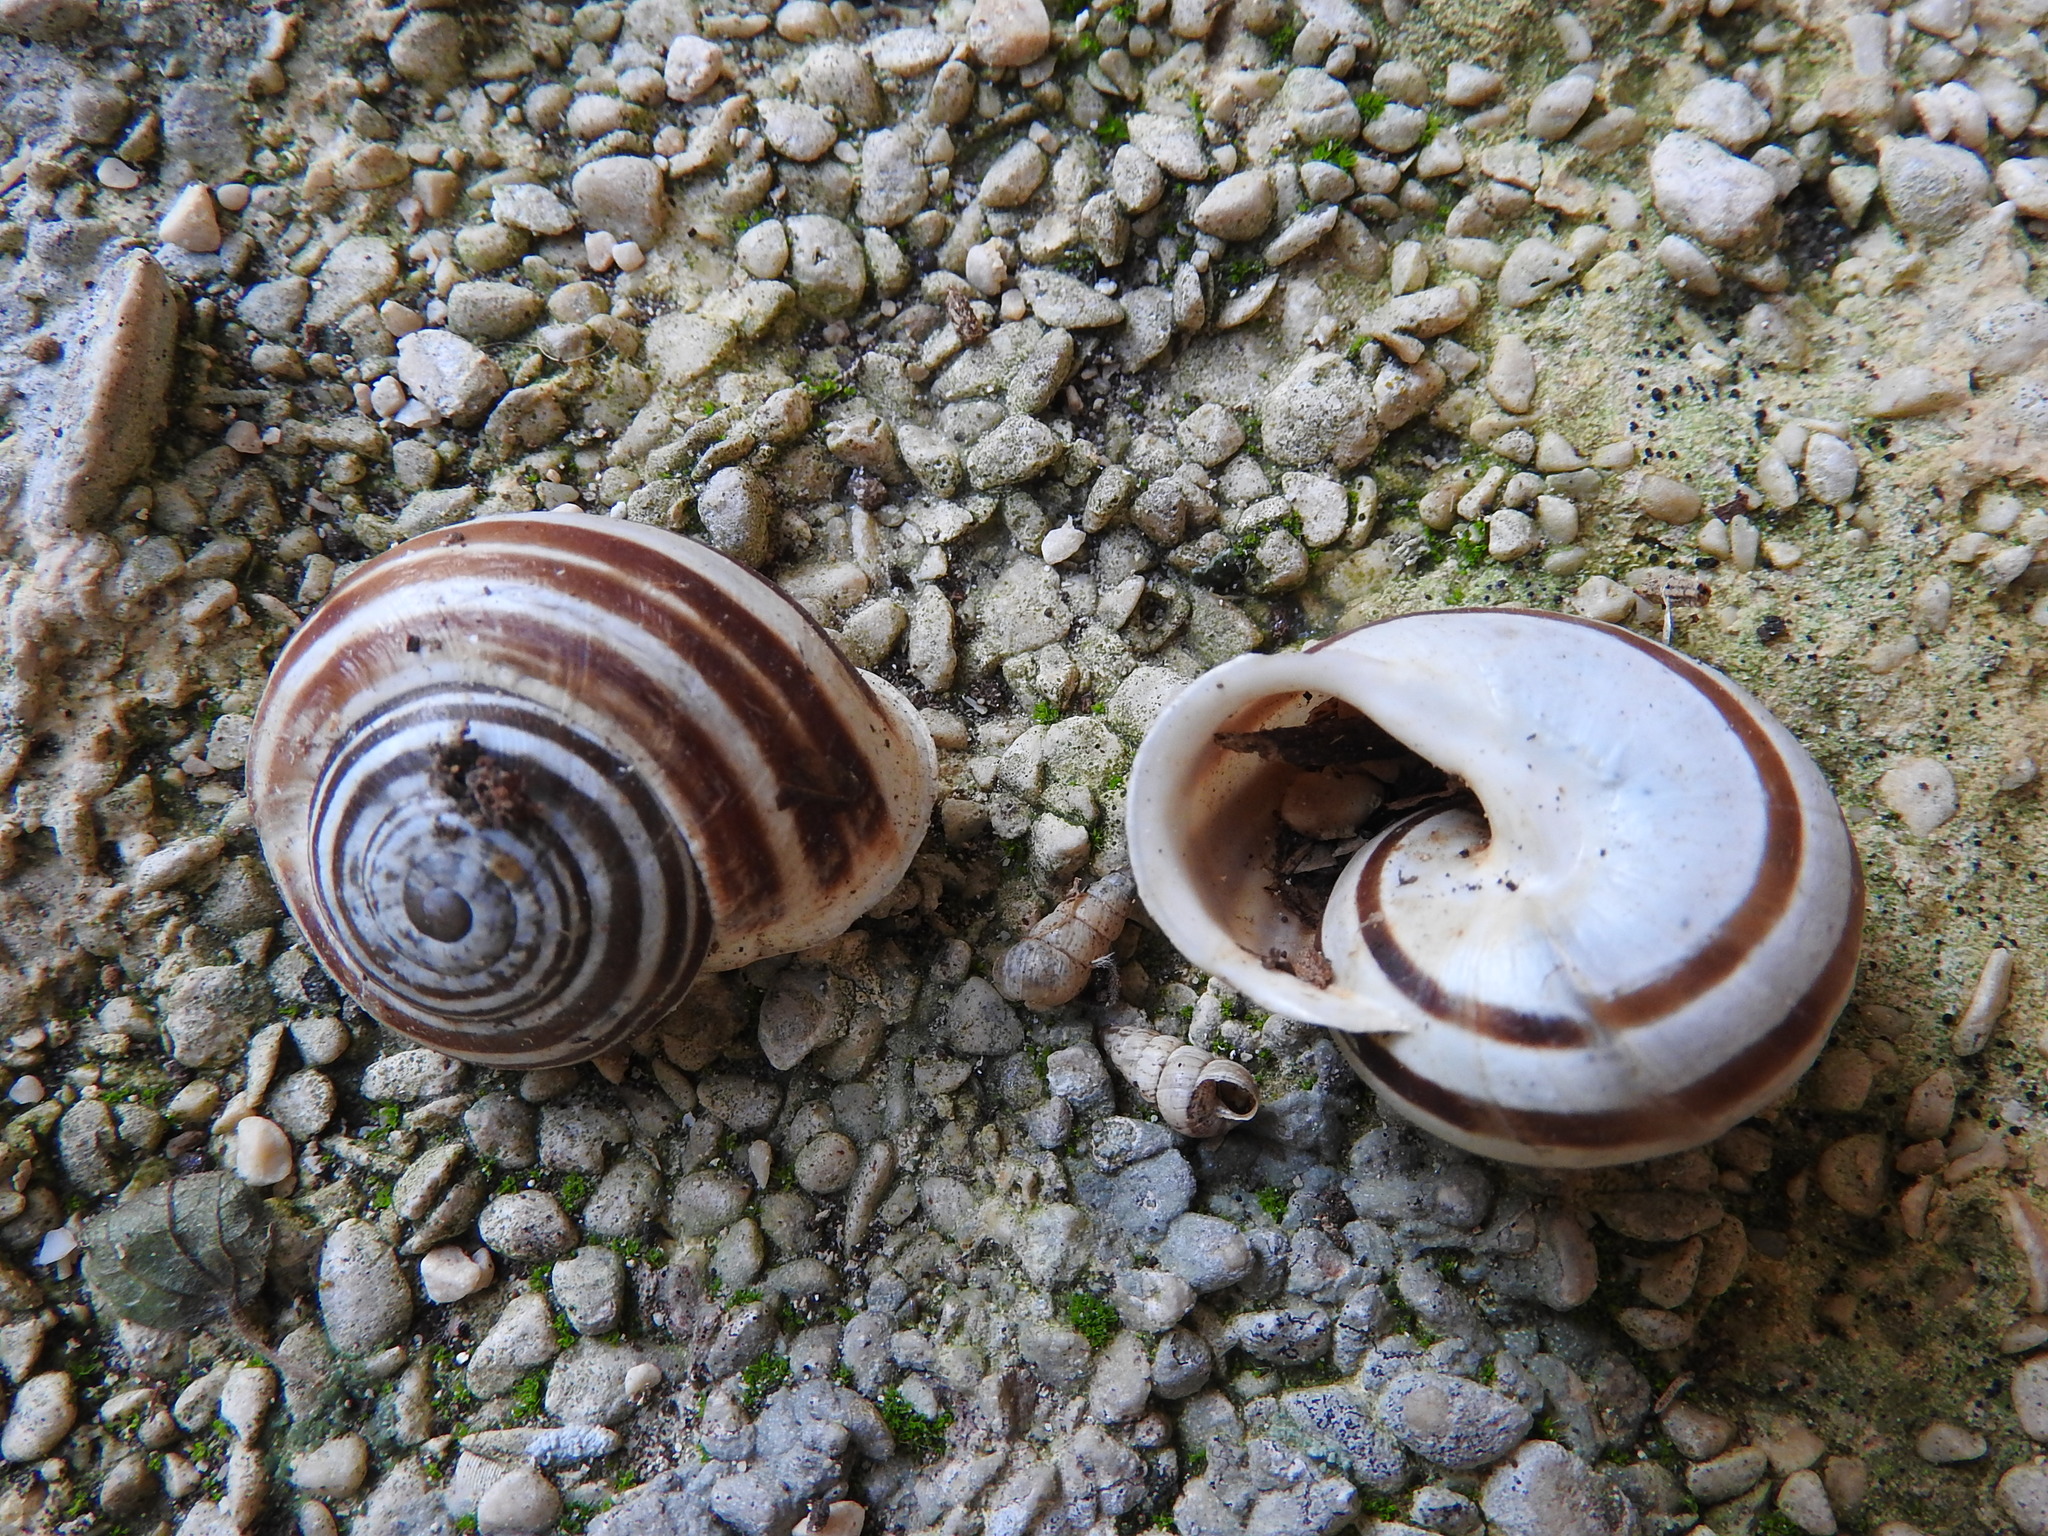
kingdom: Animalia
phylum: Mollusca
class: Gastropoda
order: Stylommatophora
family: Helicidae
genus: Eobania
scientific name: Eobania vermiculata
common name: Chocolateband snail
